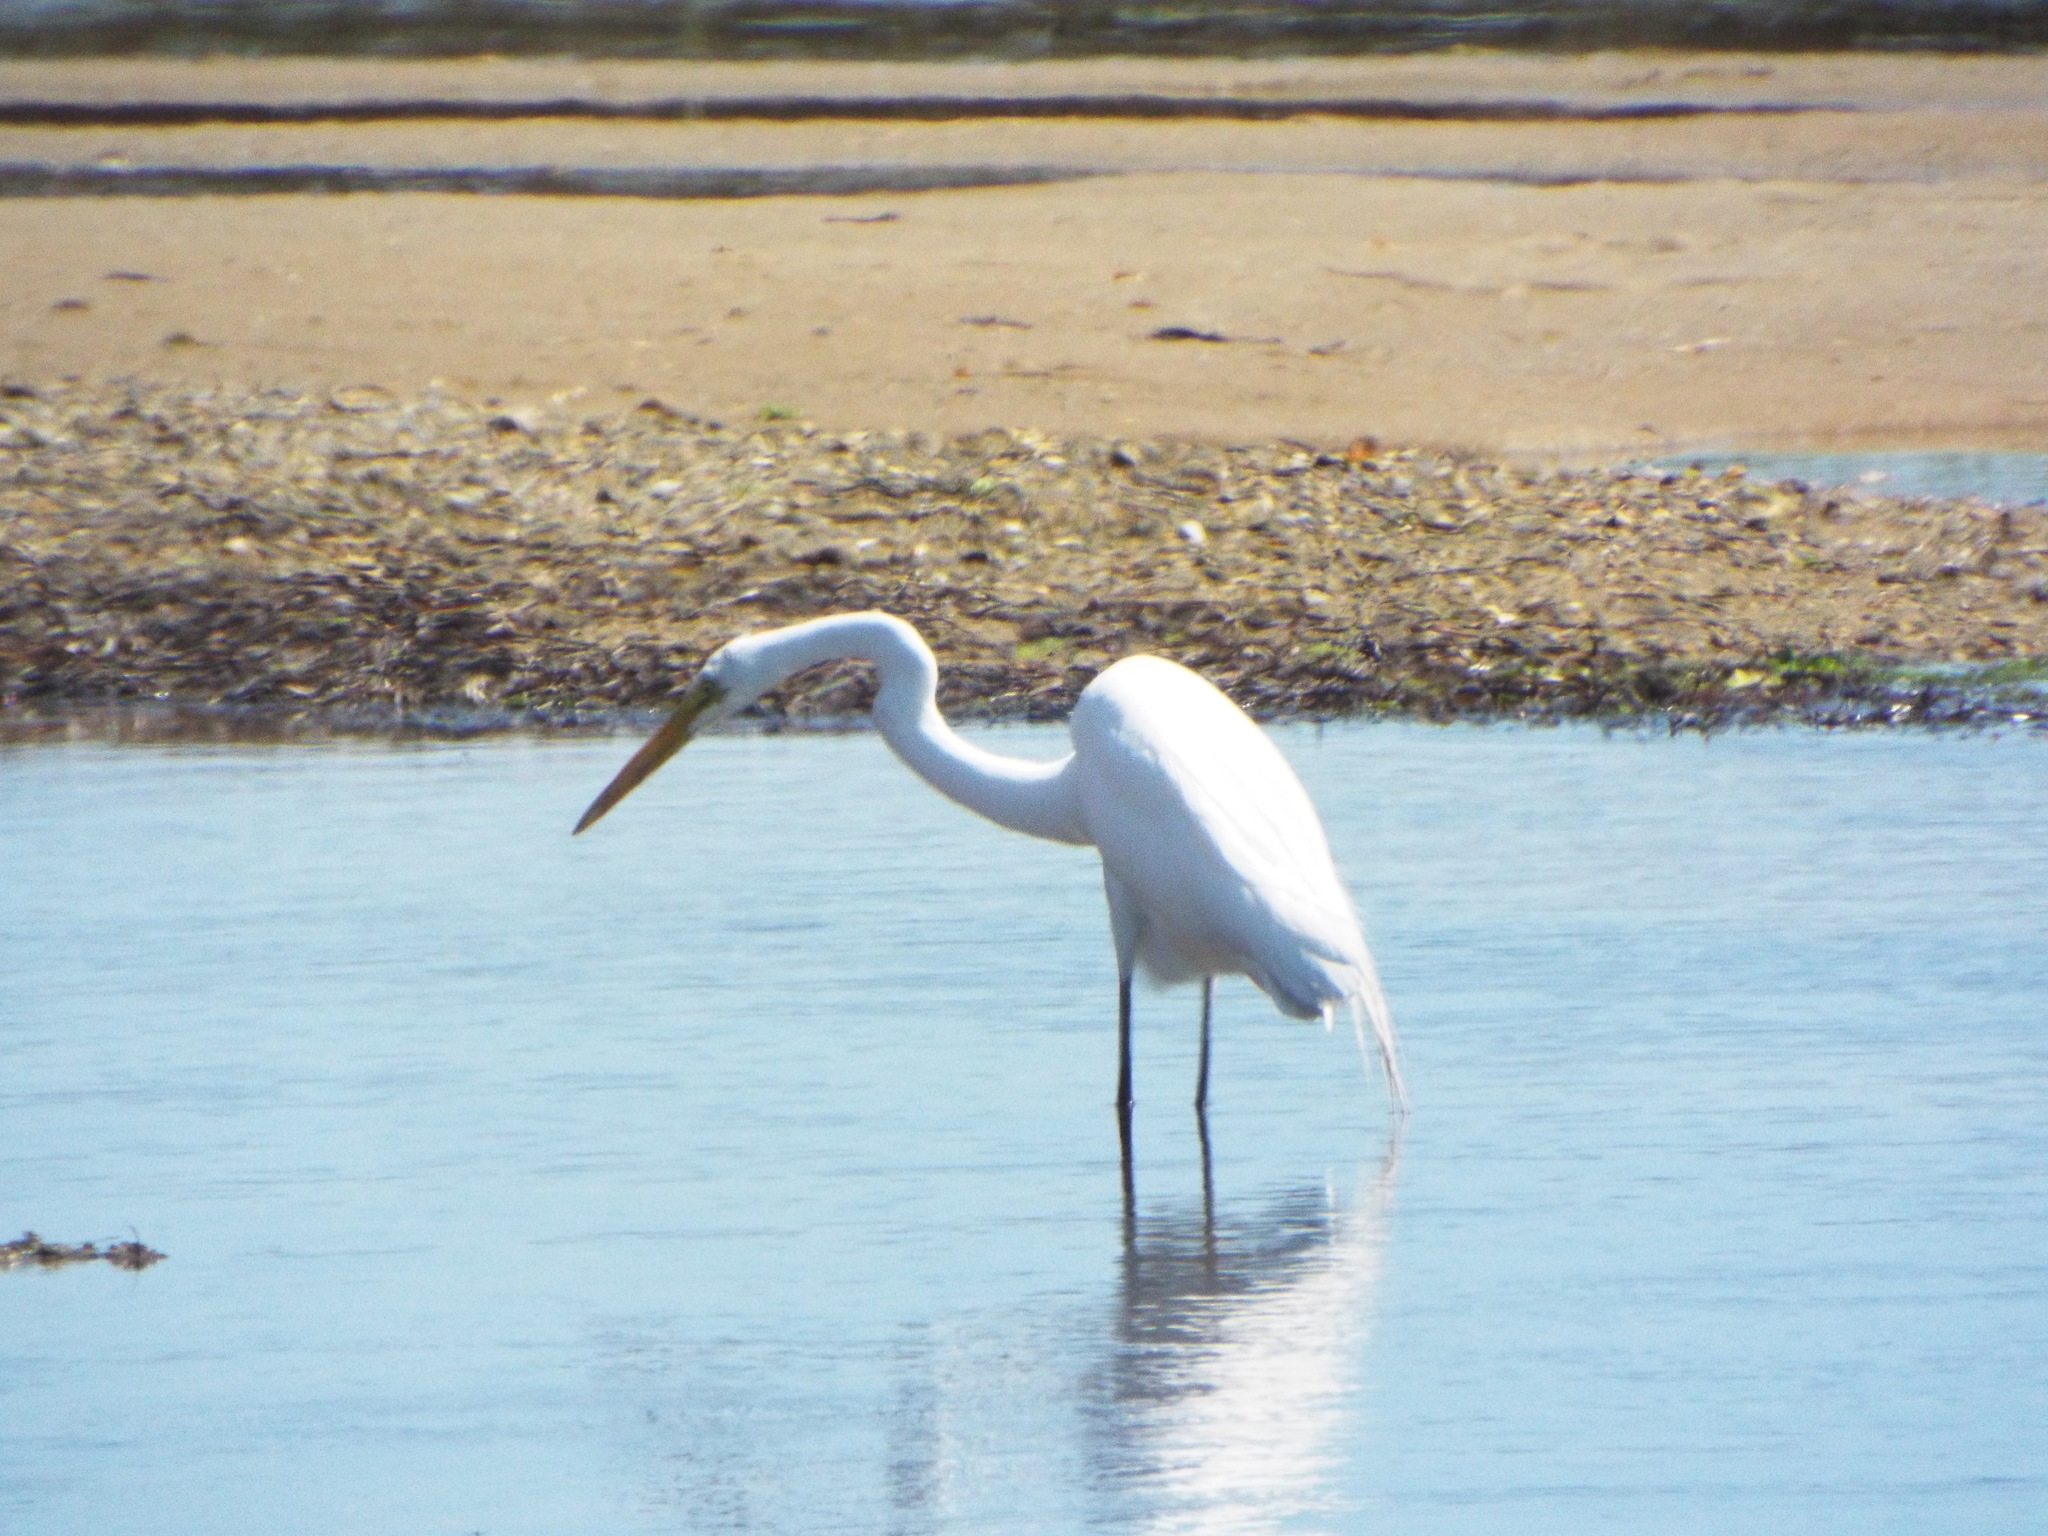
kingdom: Animalia
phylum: Chordata
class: Aves
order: Pelecaniformes
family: Ardeidae
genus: Ardea
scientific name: Ardea alba
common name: Great egret
